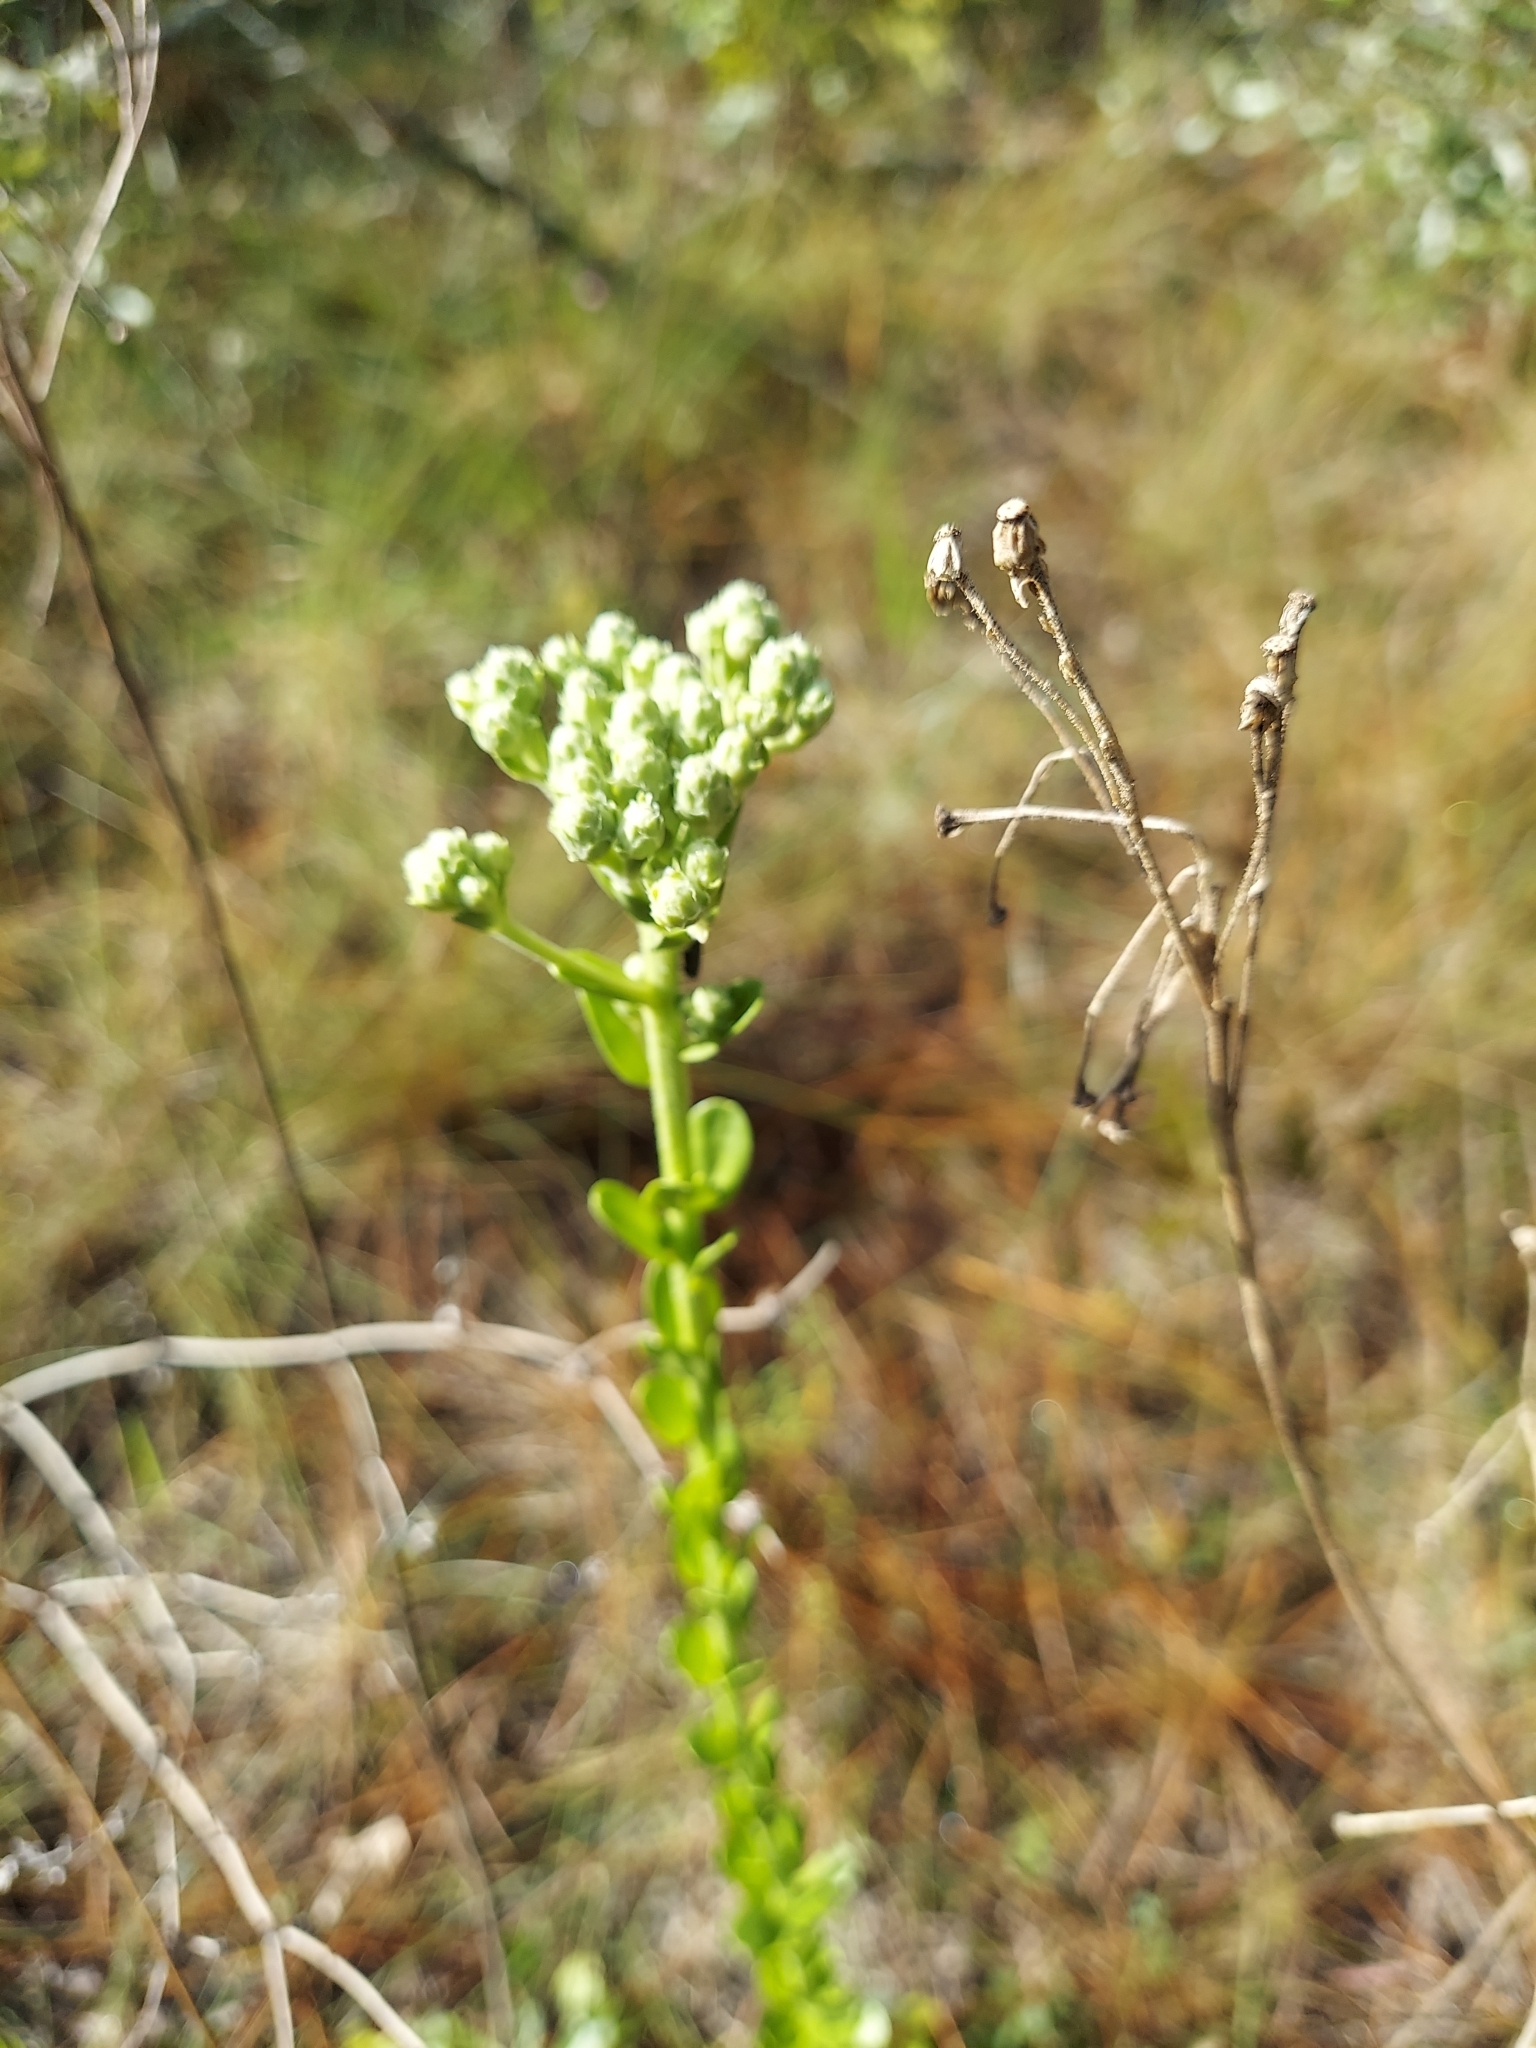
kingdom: Plantae
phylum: Tracheophyta
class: Magnoliopsida
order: Asterales
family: Asteraceae
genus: Carphephorus
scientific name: Carphephorus corymbosus
